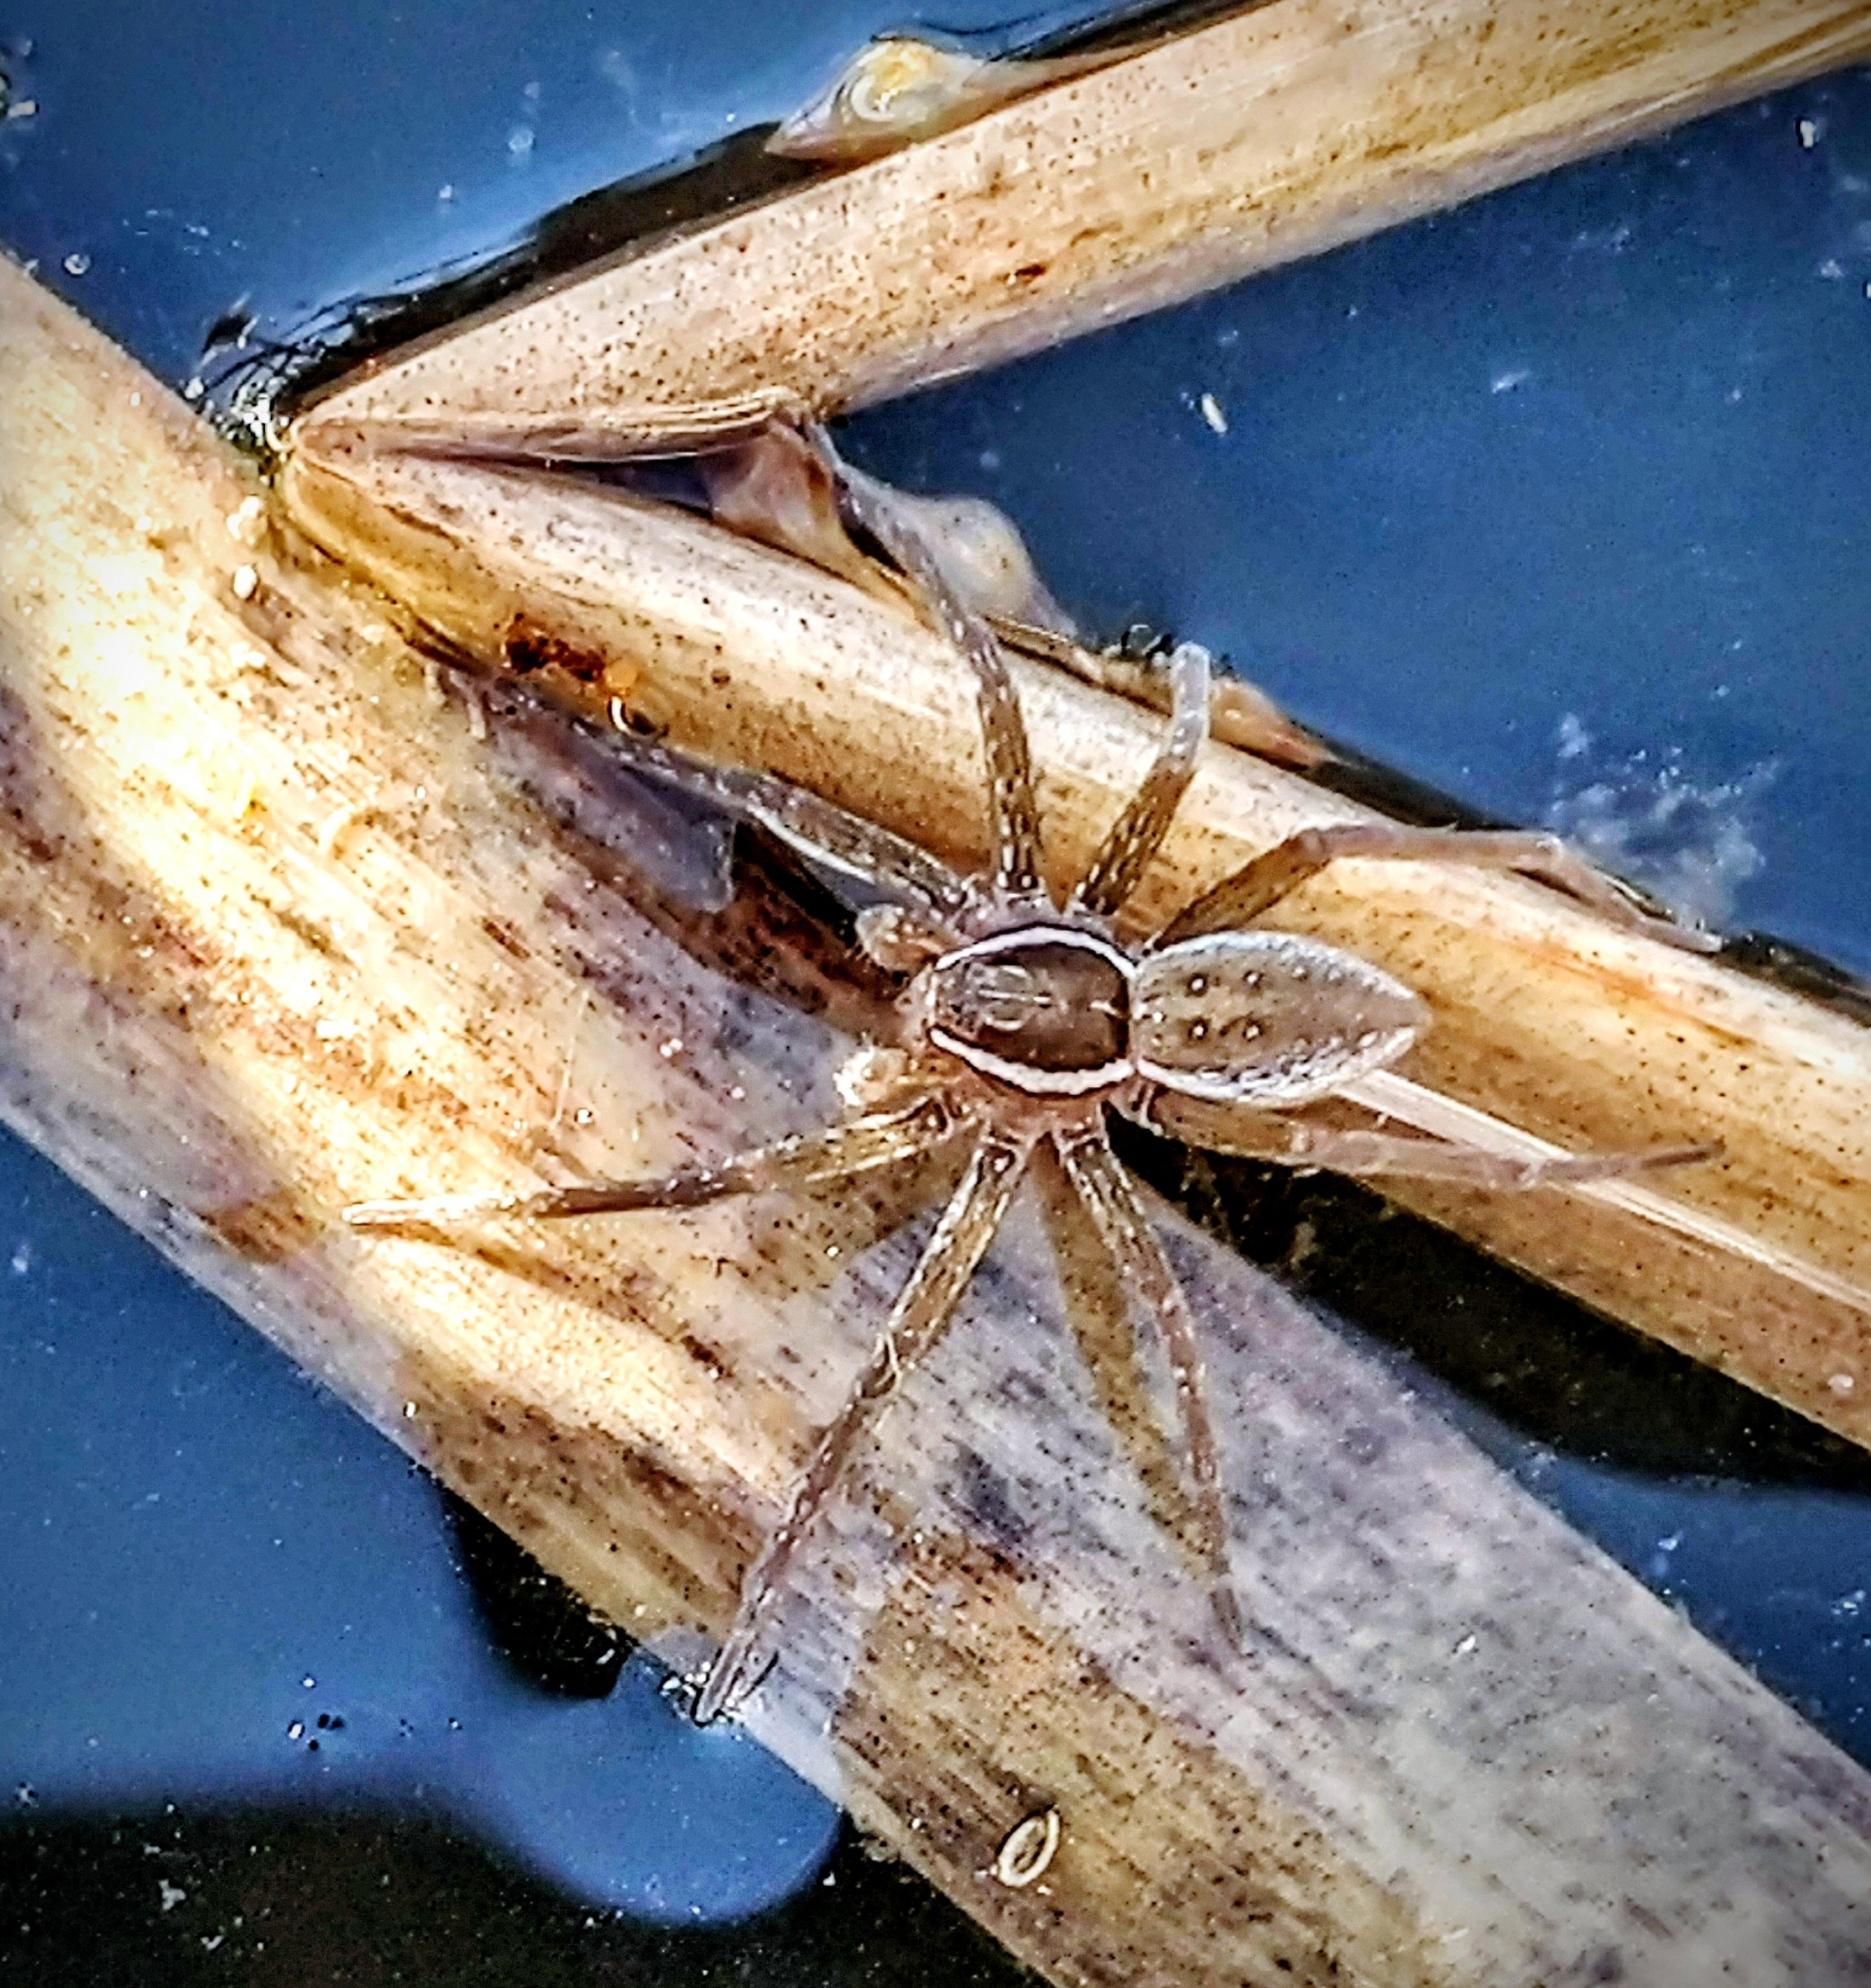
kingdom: Animalia
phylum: Arthropoda
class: Arachnida
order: Araneae
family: Pisauridae
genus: Dolomedes
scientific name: Dolomedes triton
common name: Six-spotted fishing spider
